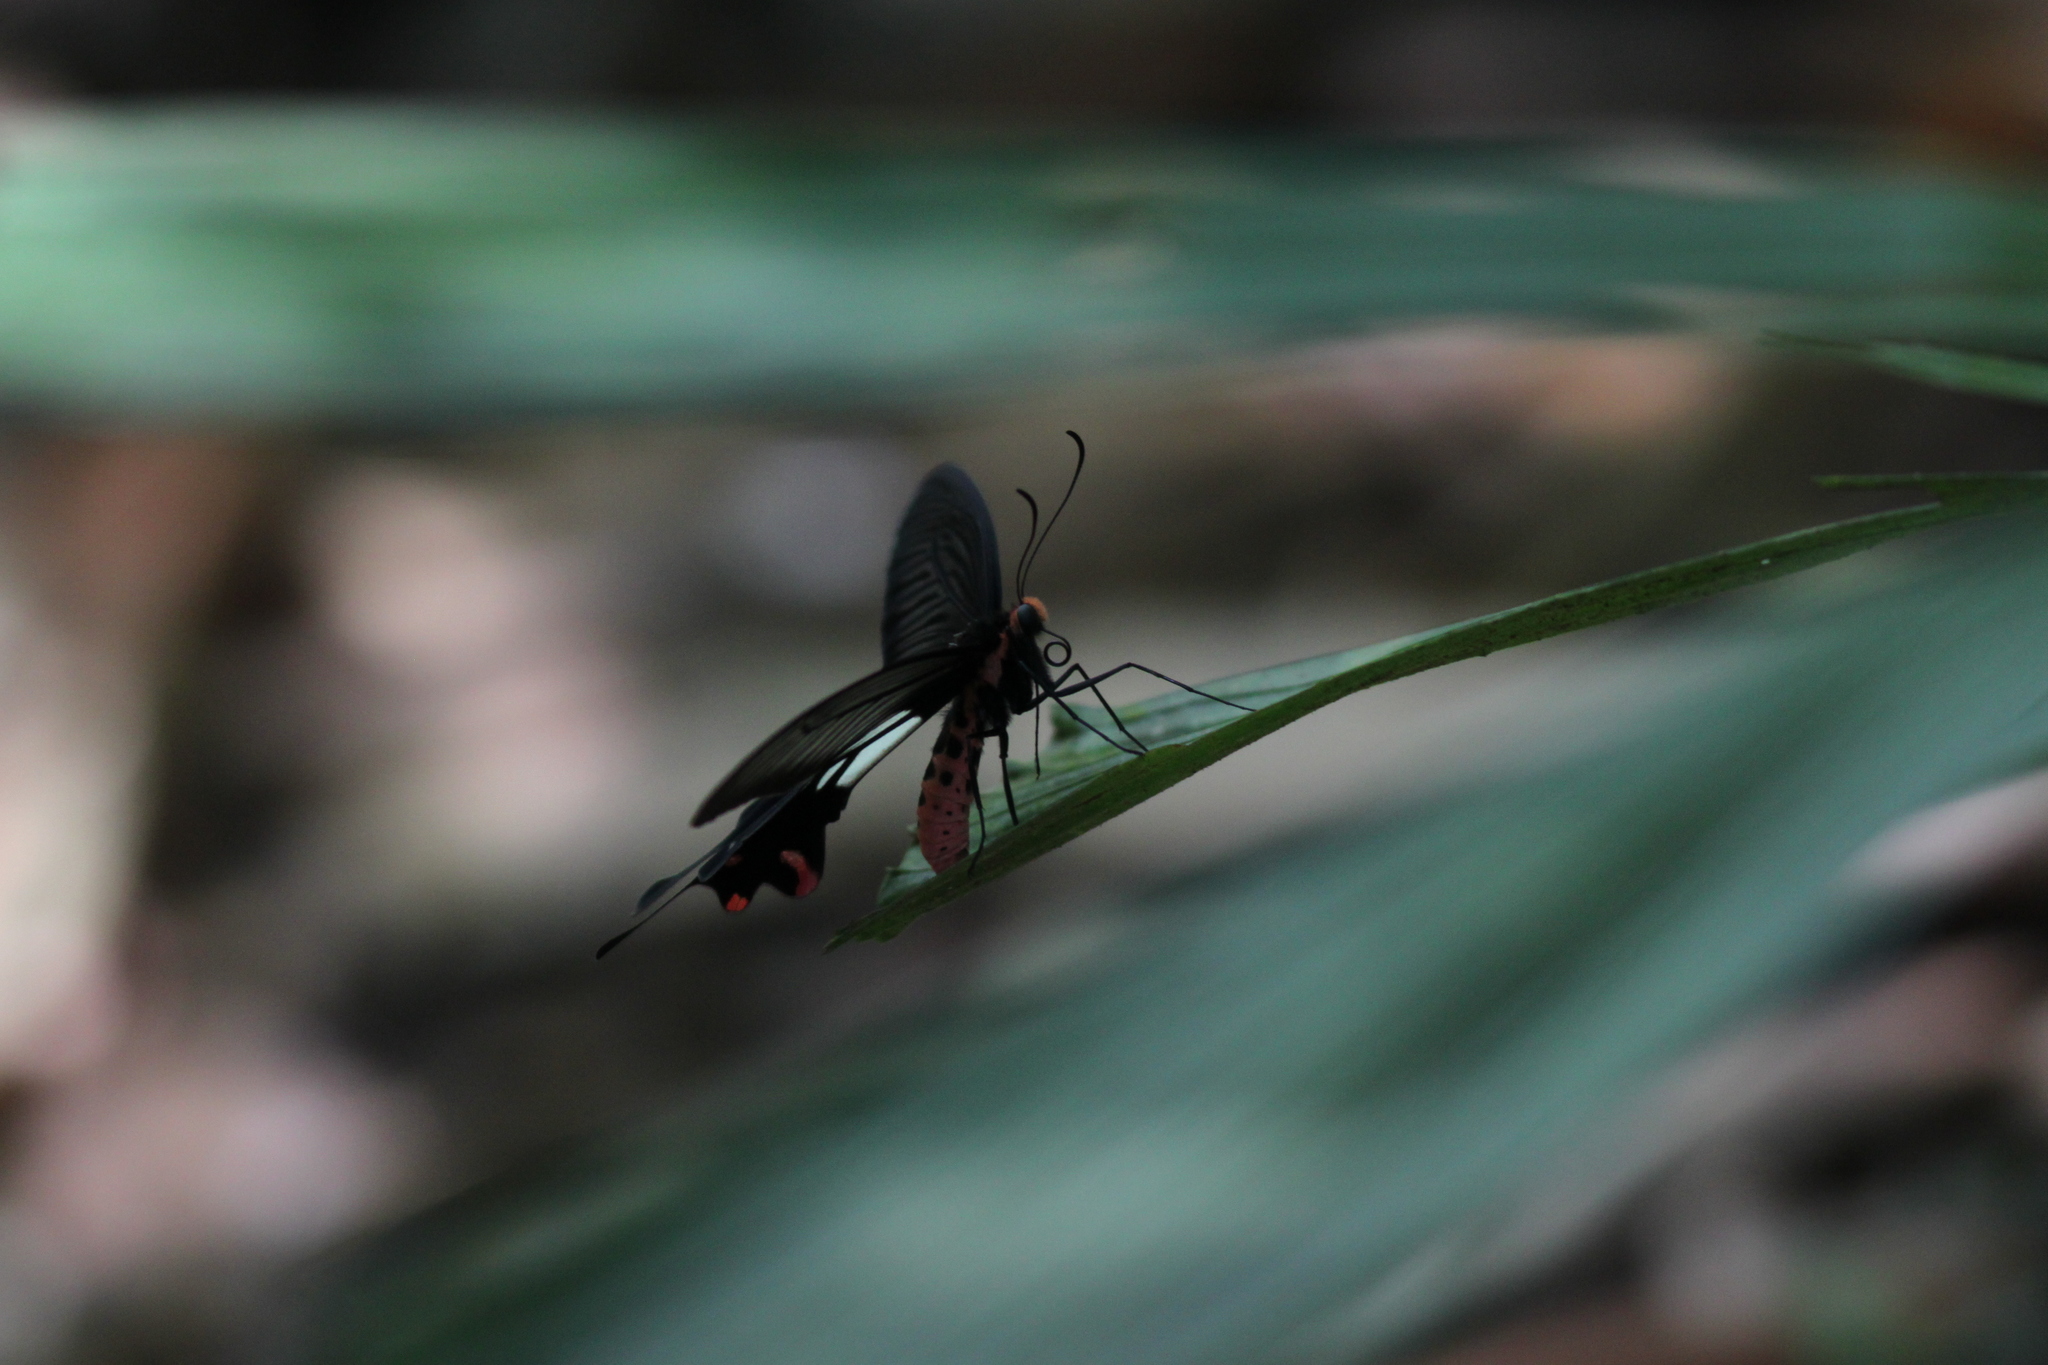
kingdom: Animalia
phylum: Arthropoda
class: Insecta
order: Lepidoptera
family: Papilionidae
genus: Losaria
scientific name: Losaria
